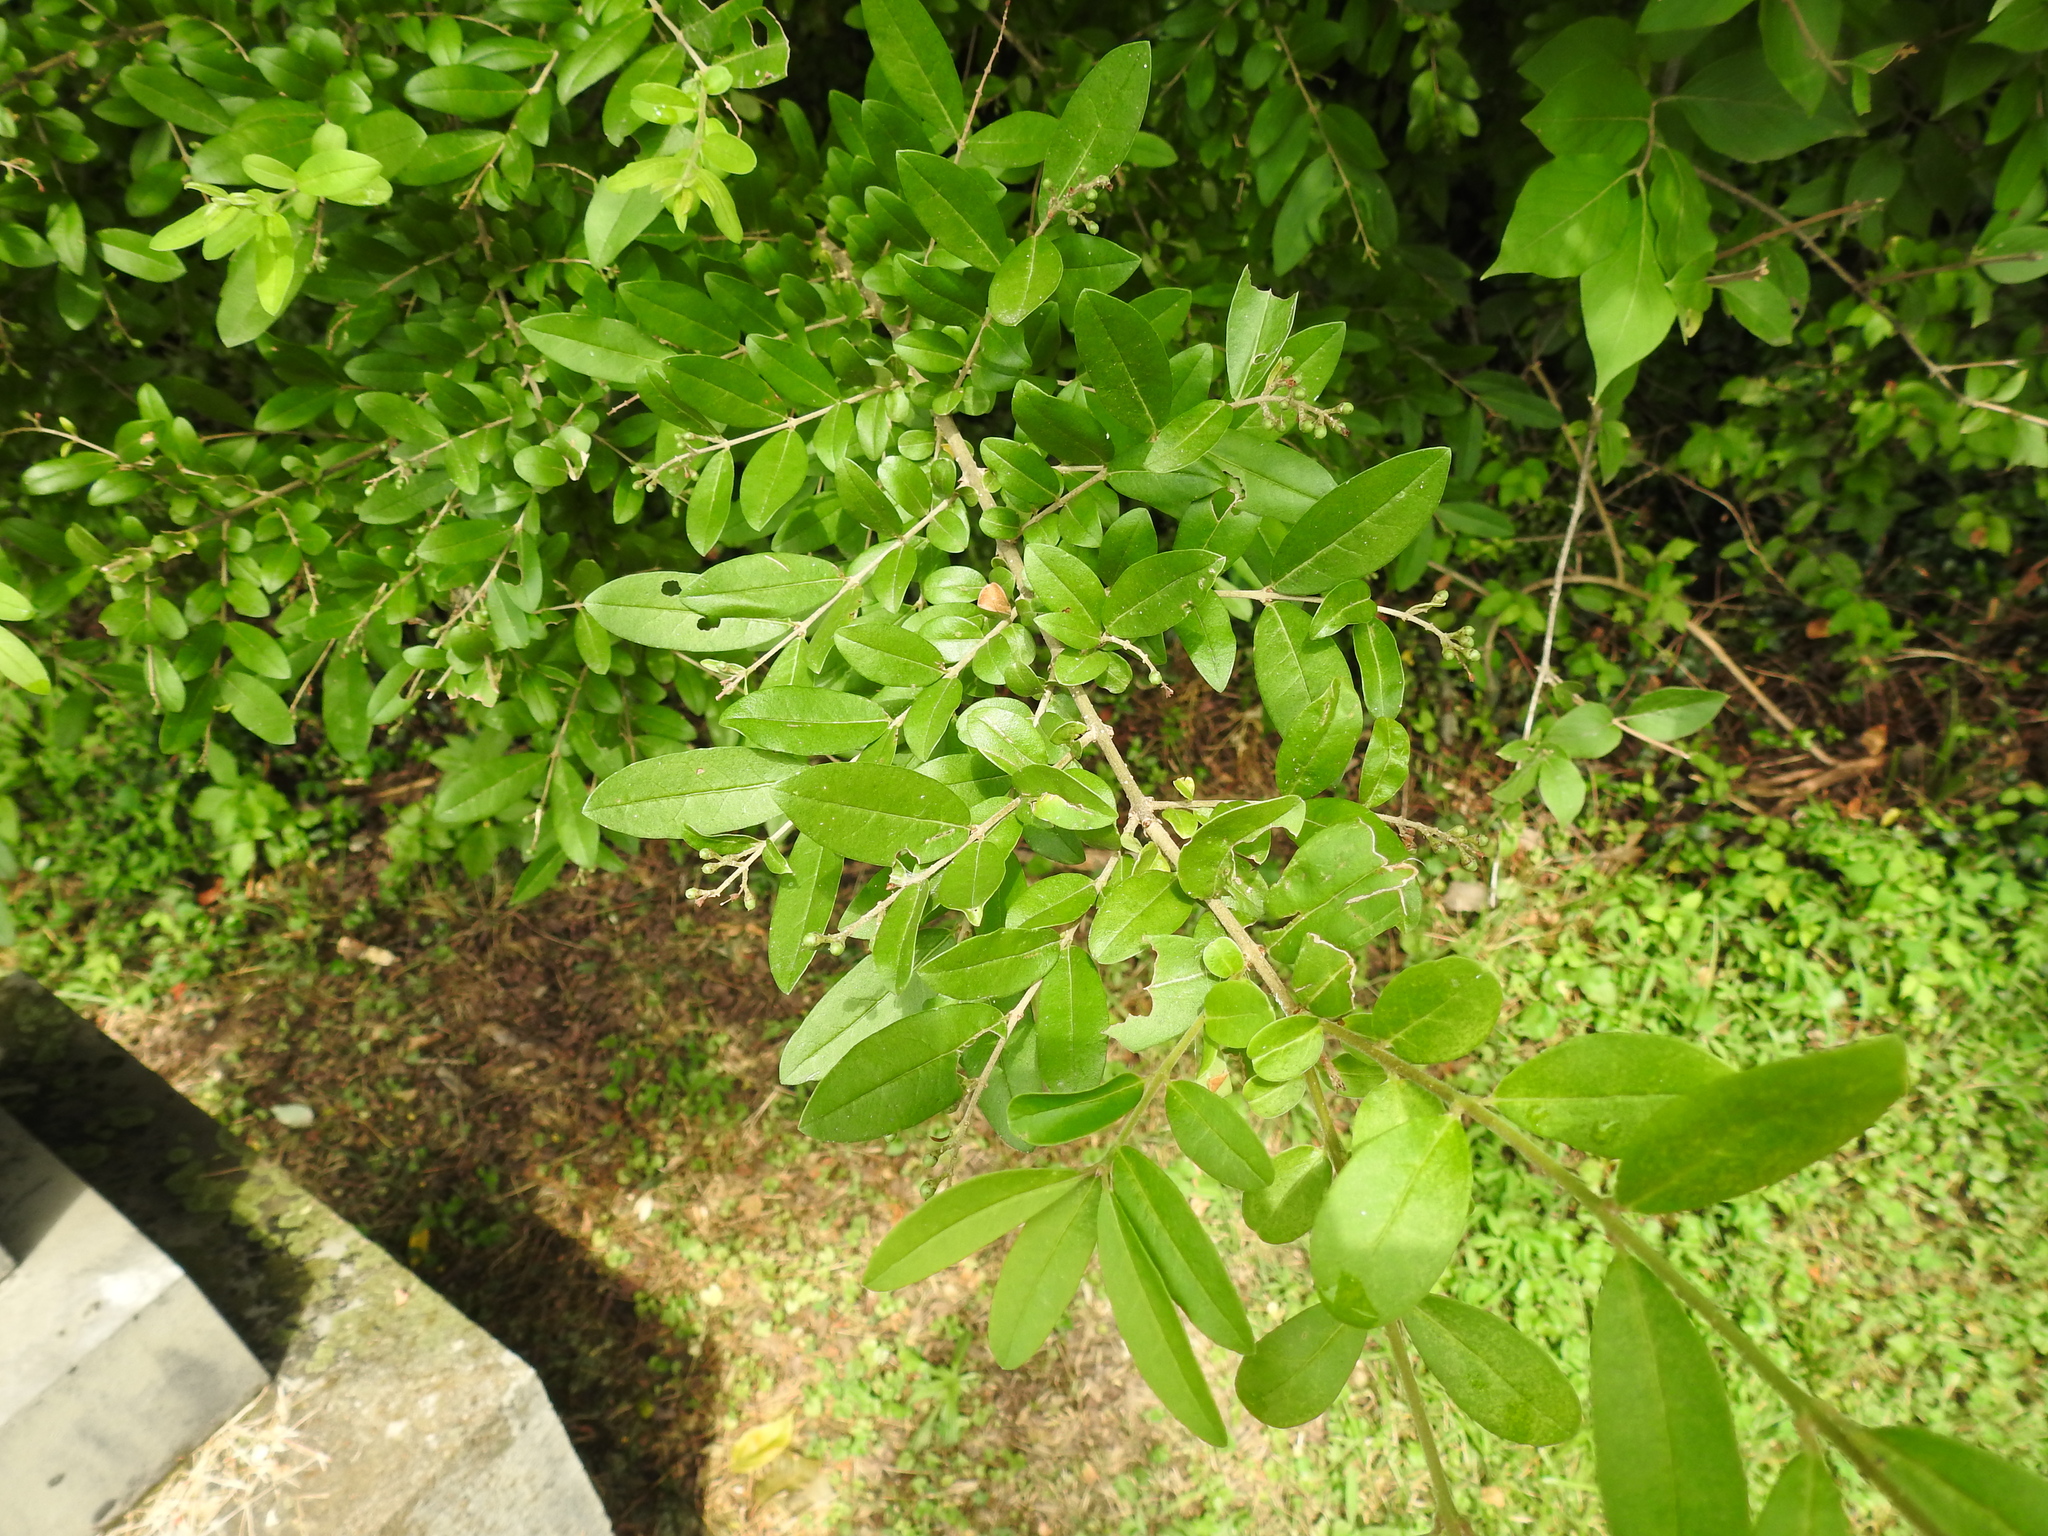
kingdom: Plantae
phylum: Tracheophyta
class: Magnoliopsida
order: Lamiales
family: Oleaceae
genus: Ligustrum
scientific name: Ligustrum obtusifolium
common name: Border privet
